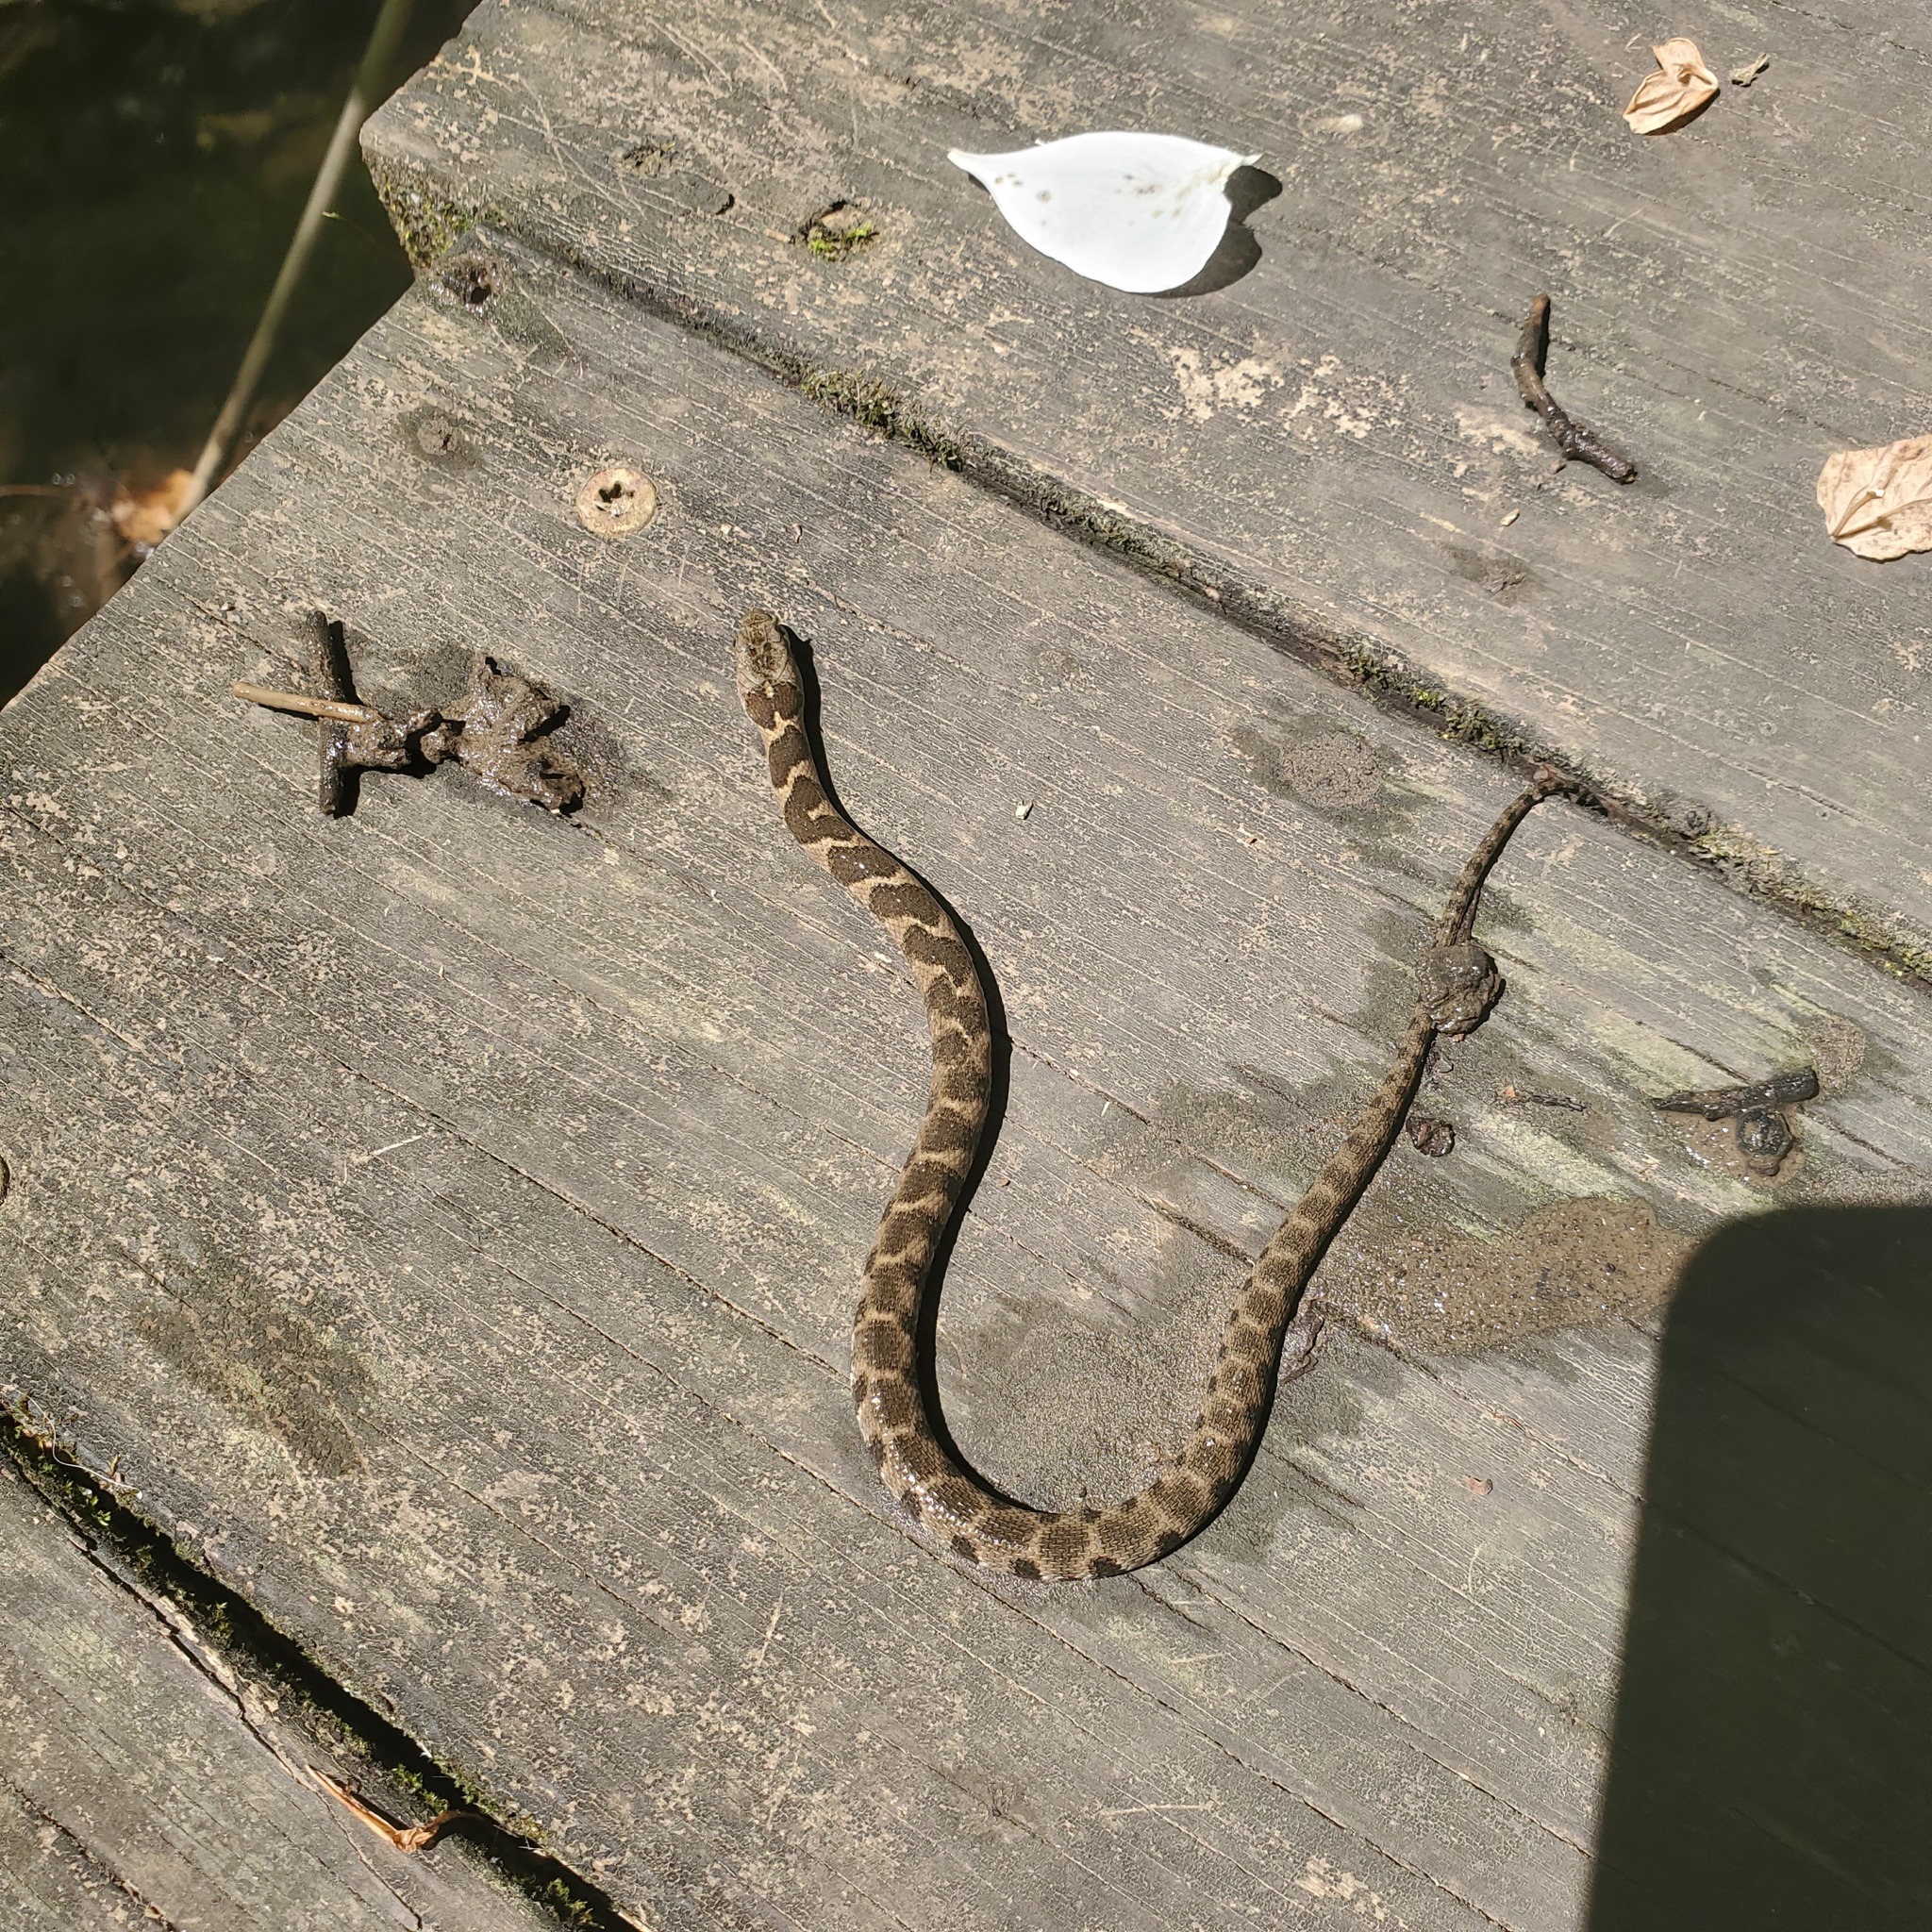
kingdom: Animalia
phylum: Chordata
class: Squamata
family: Colubridae
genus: Nerodia
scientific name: Nerodia sipedon
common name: Northern water snake
